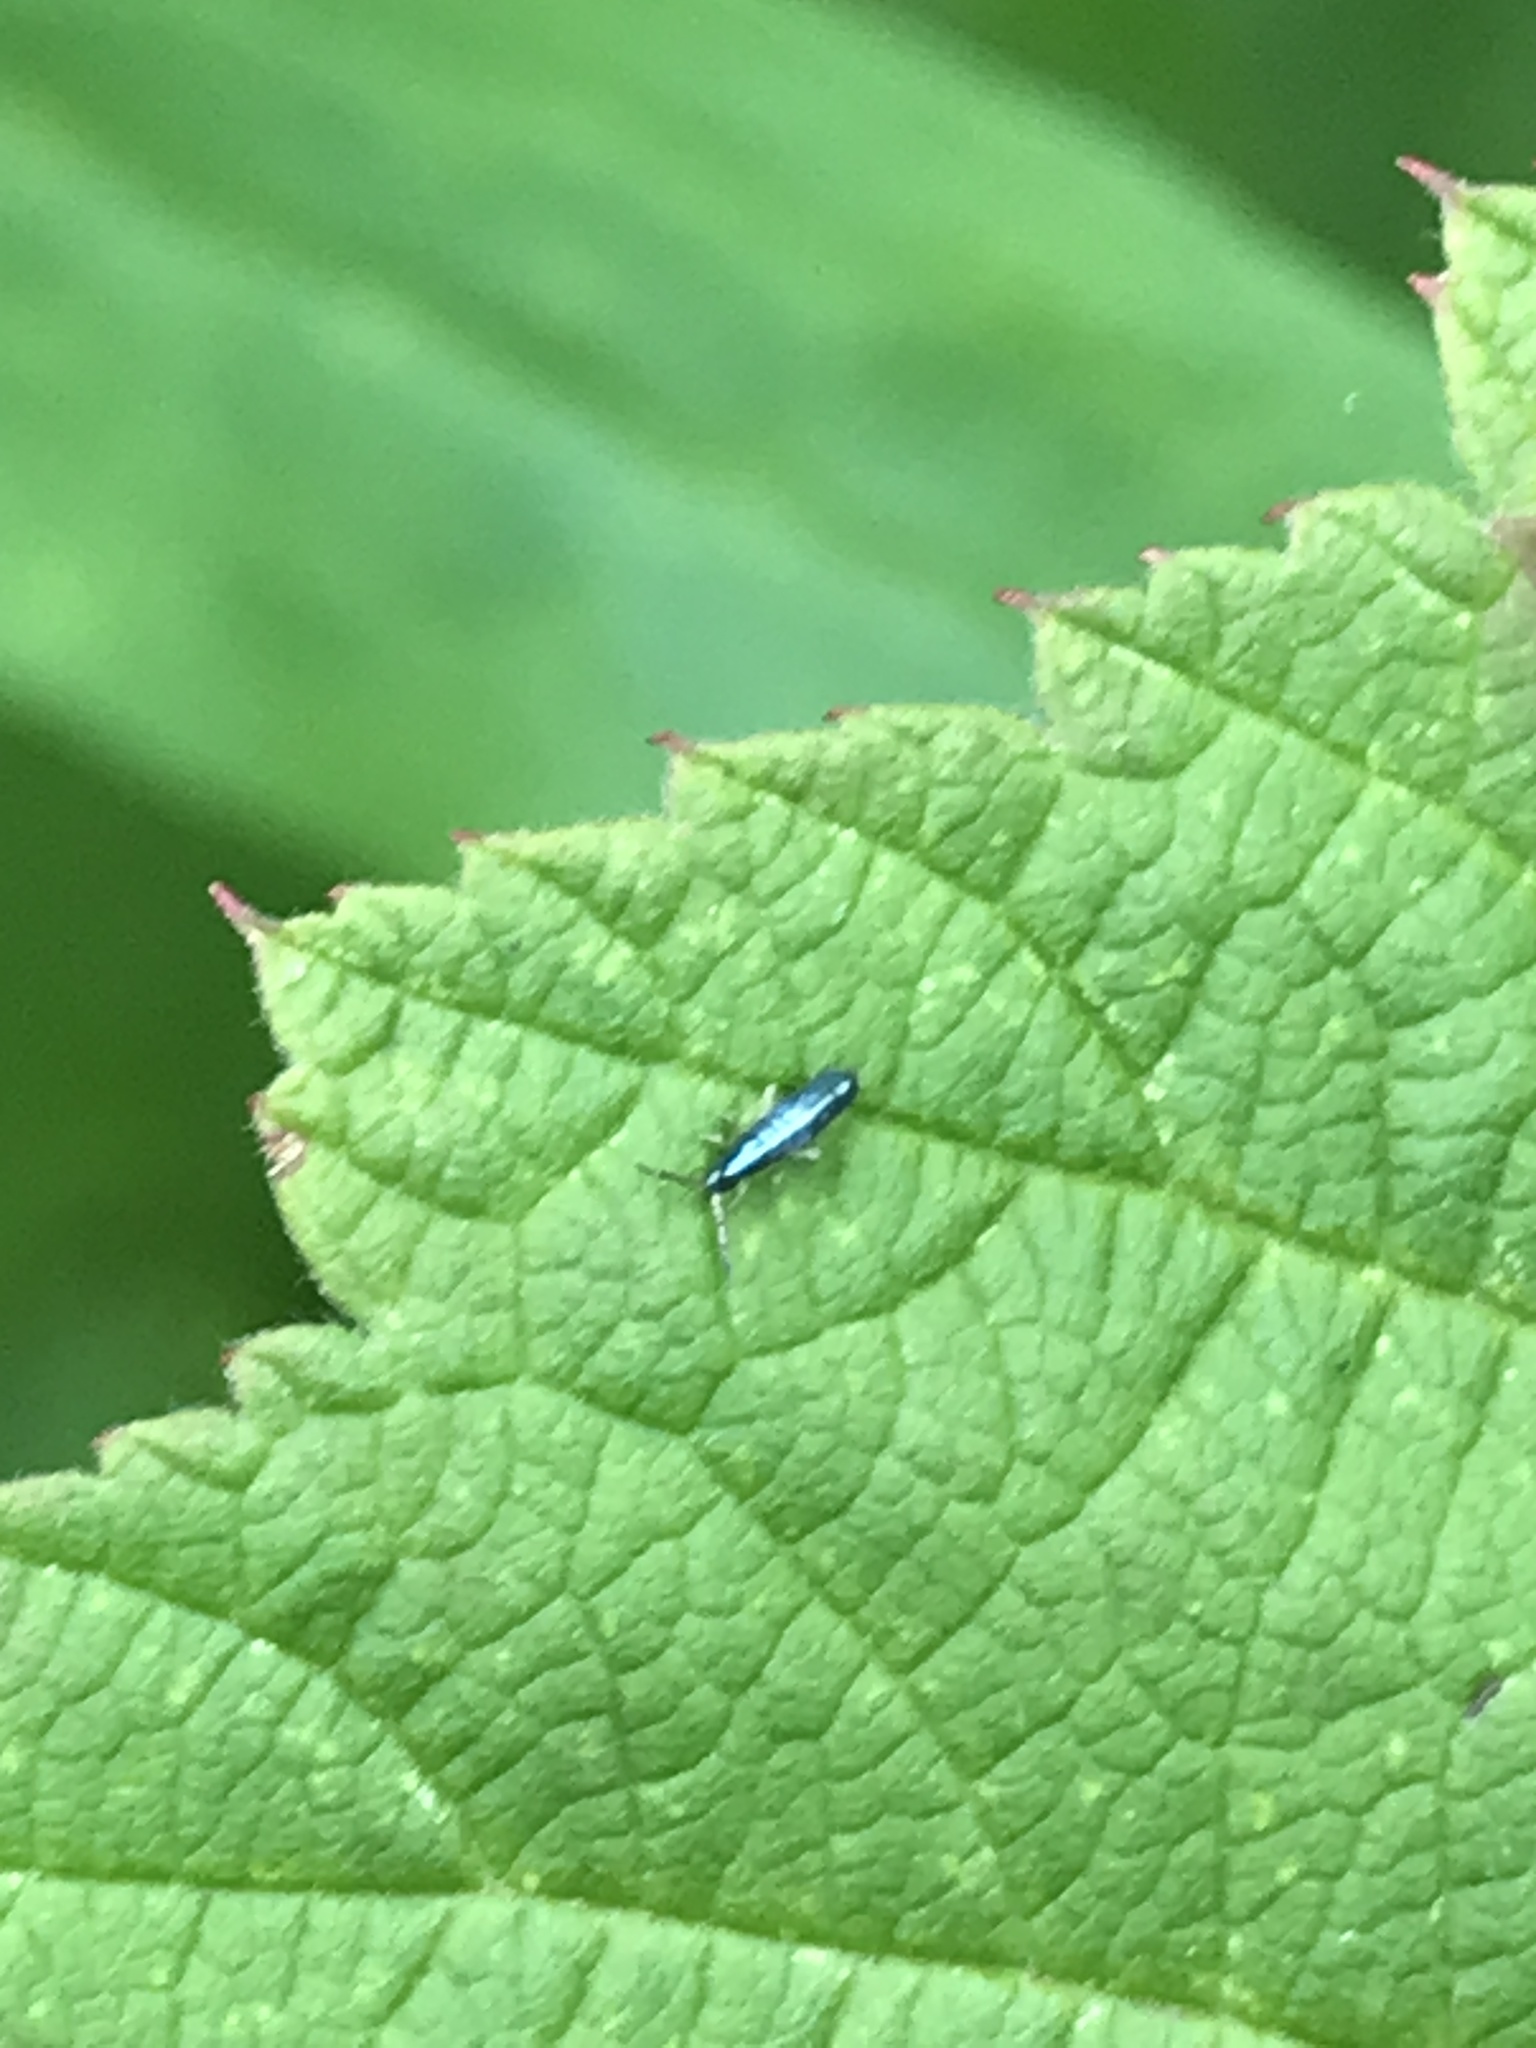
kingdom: Animalia
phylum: Arthropoda
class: Collembola
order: Entomobryomorpha
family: Entomobryidae
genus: Lepidocyrtus
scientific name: Lepidocyrtus paradoxus
